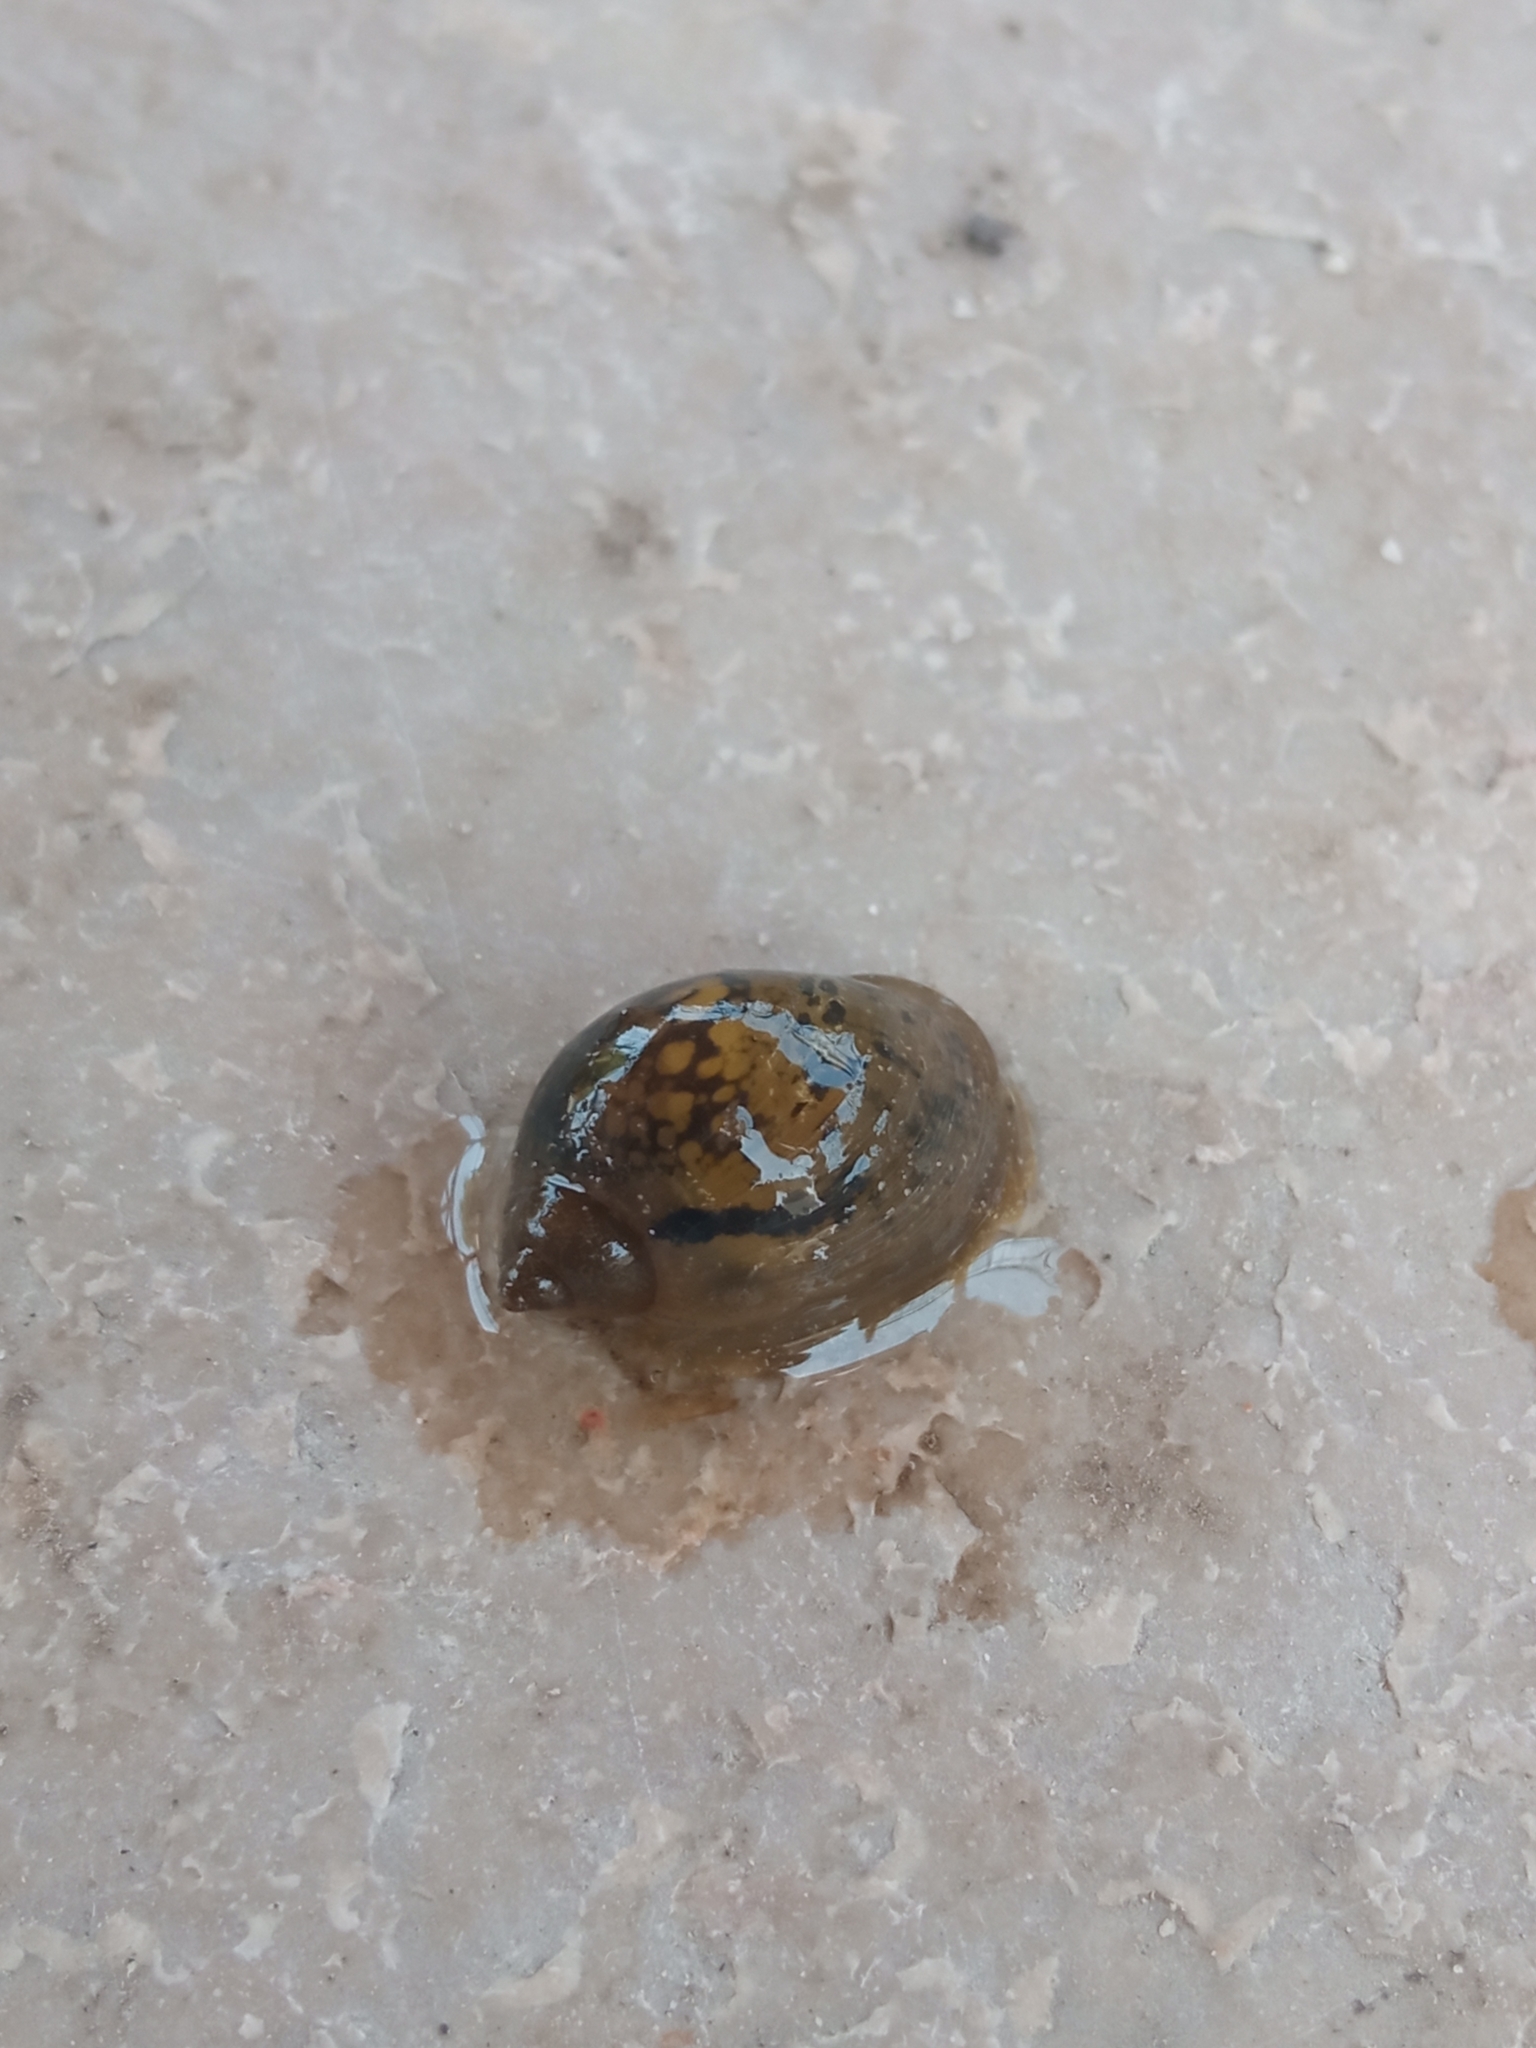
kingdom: Animalia
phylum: Mollusca
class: Gastropoda
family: Lymnaeidae
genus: Ampullaceana
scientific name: Ampullaceana balthica
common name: Wandering pond snail
